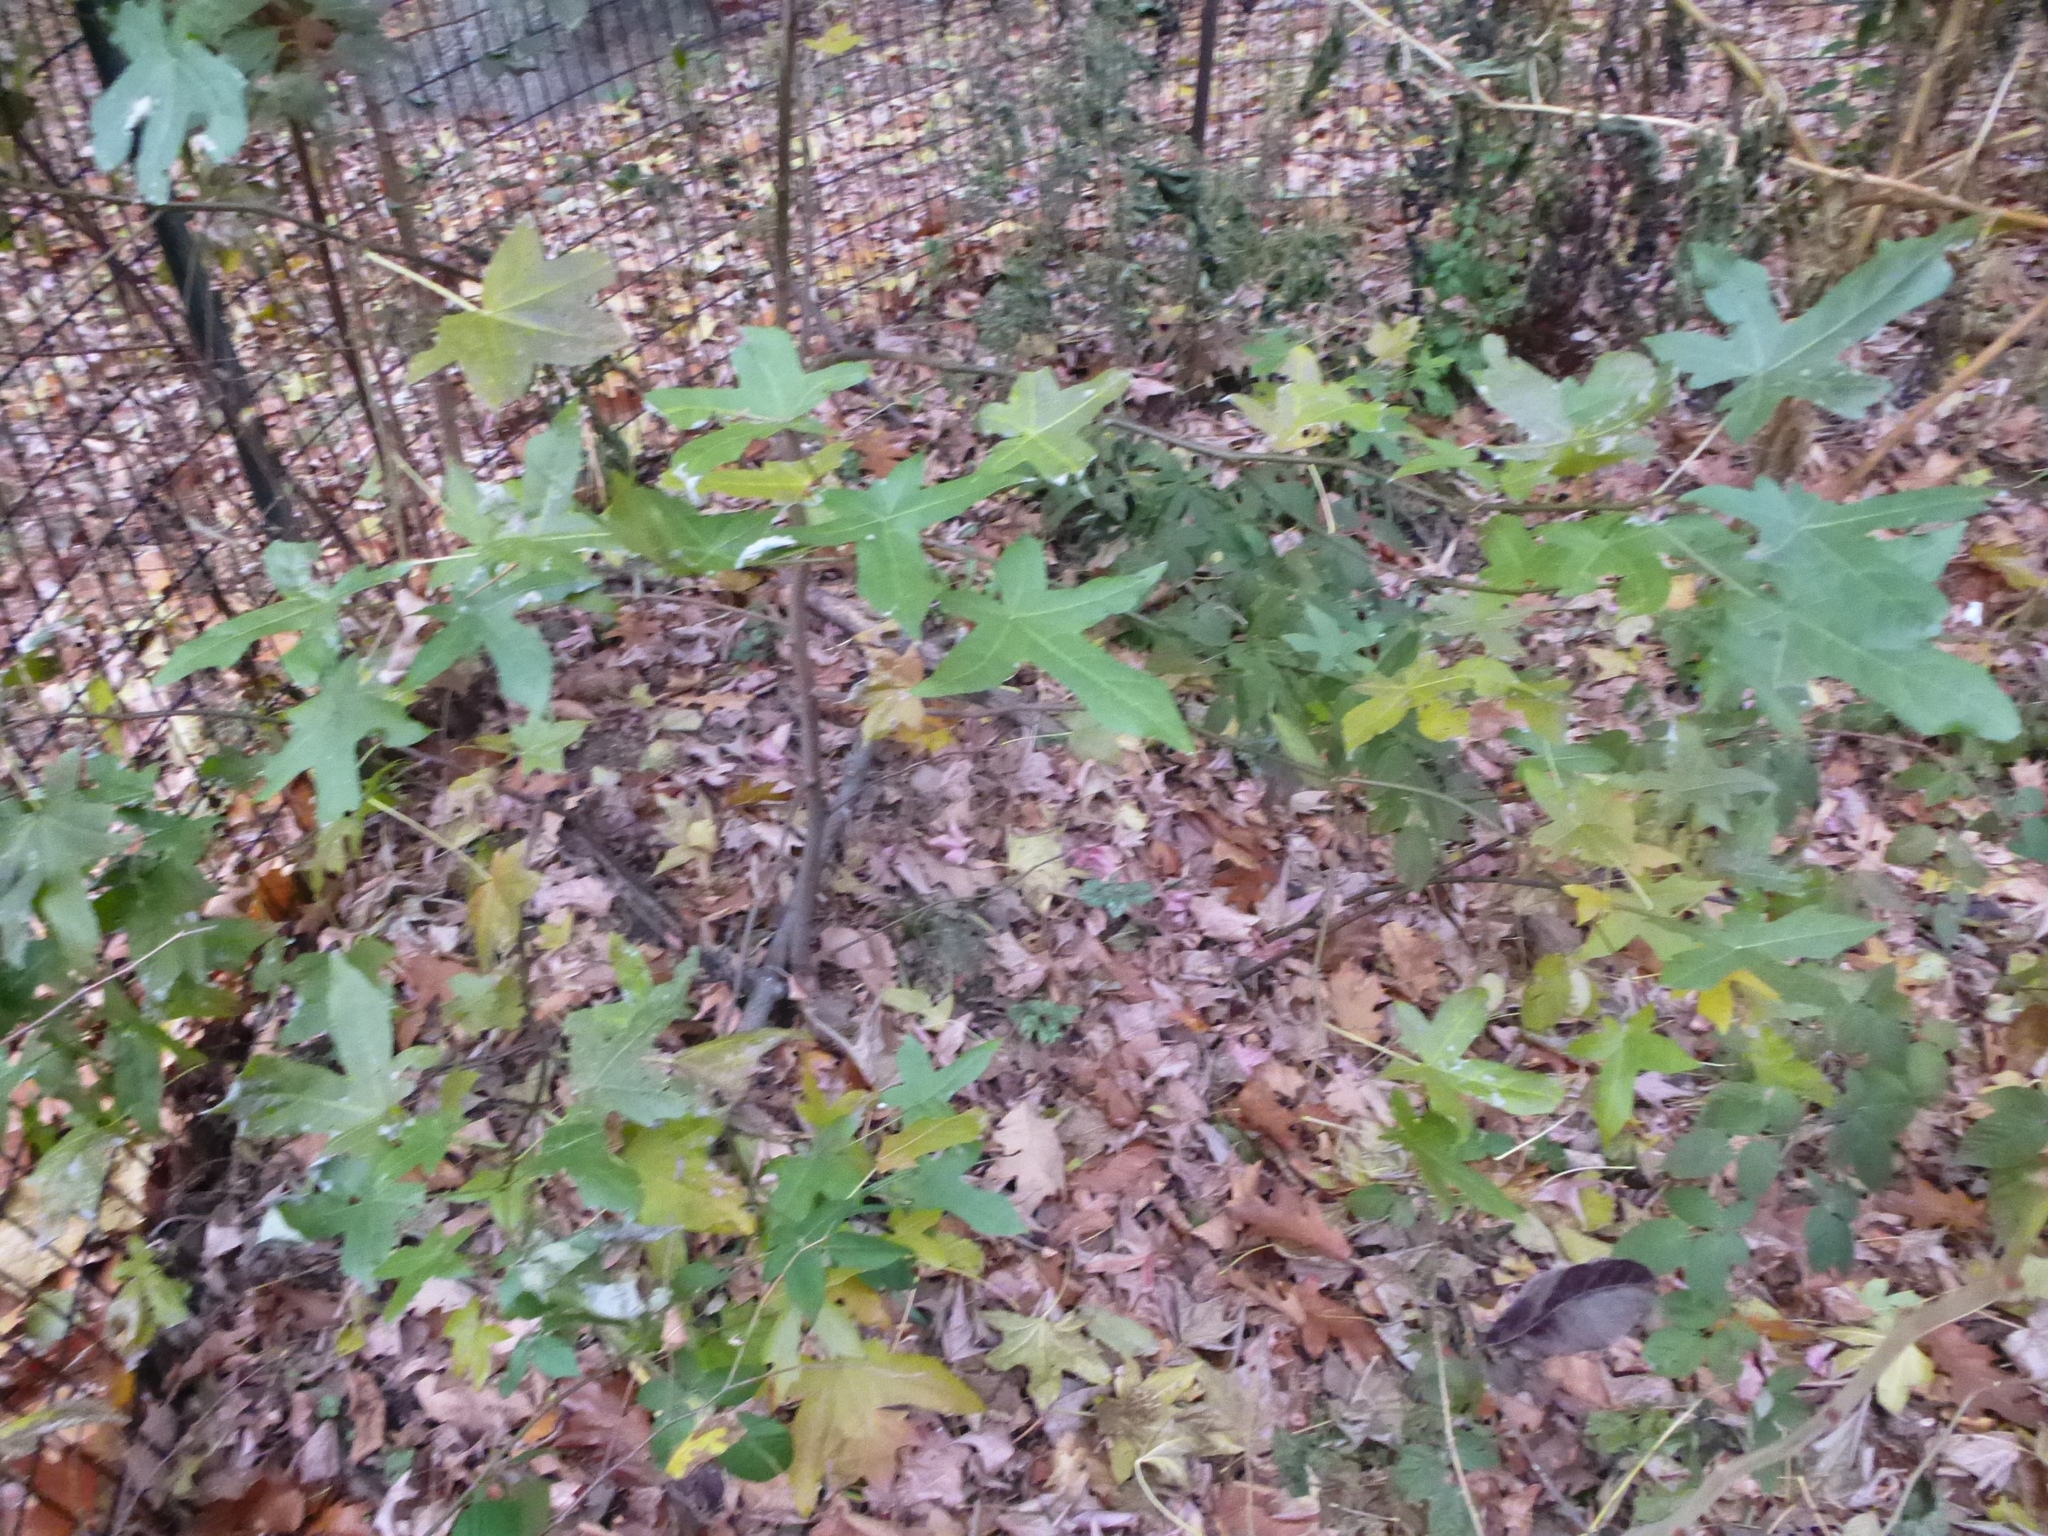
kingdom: Plantae
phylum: Tracheophyta
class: Magnoliopsida
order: Saxifragales
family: Altingiaceae
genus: Liquidambar
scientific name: Liquidambar styraciflua
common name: Sweet gum
